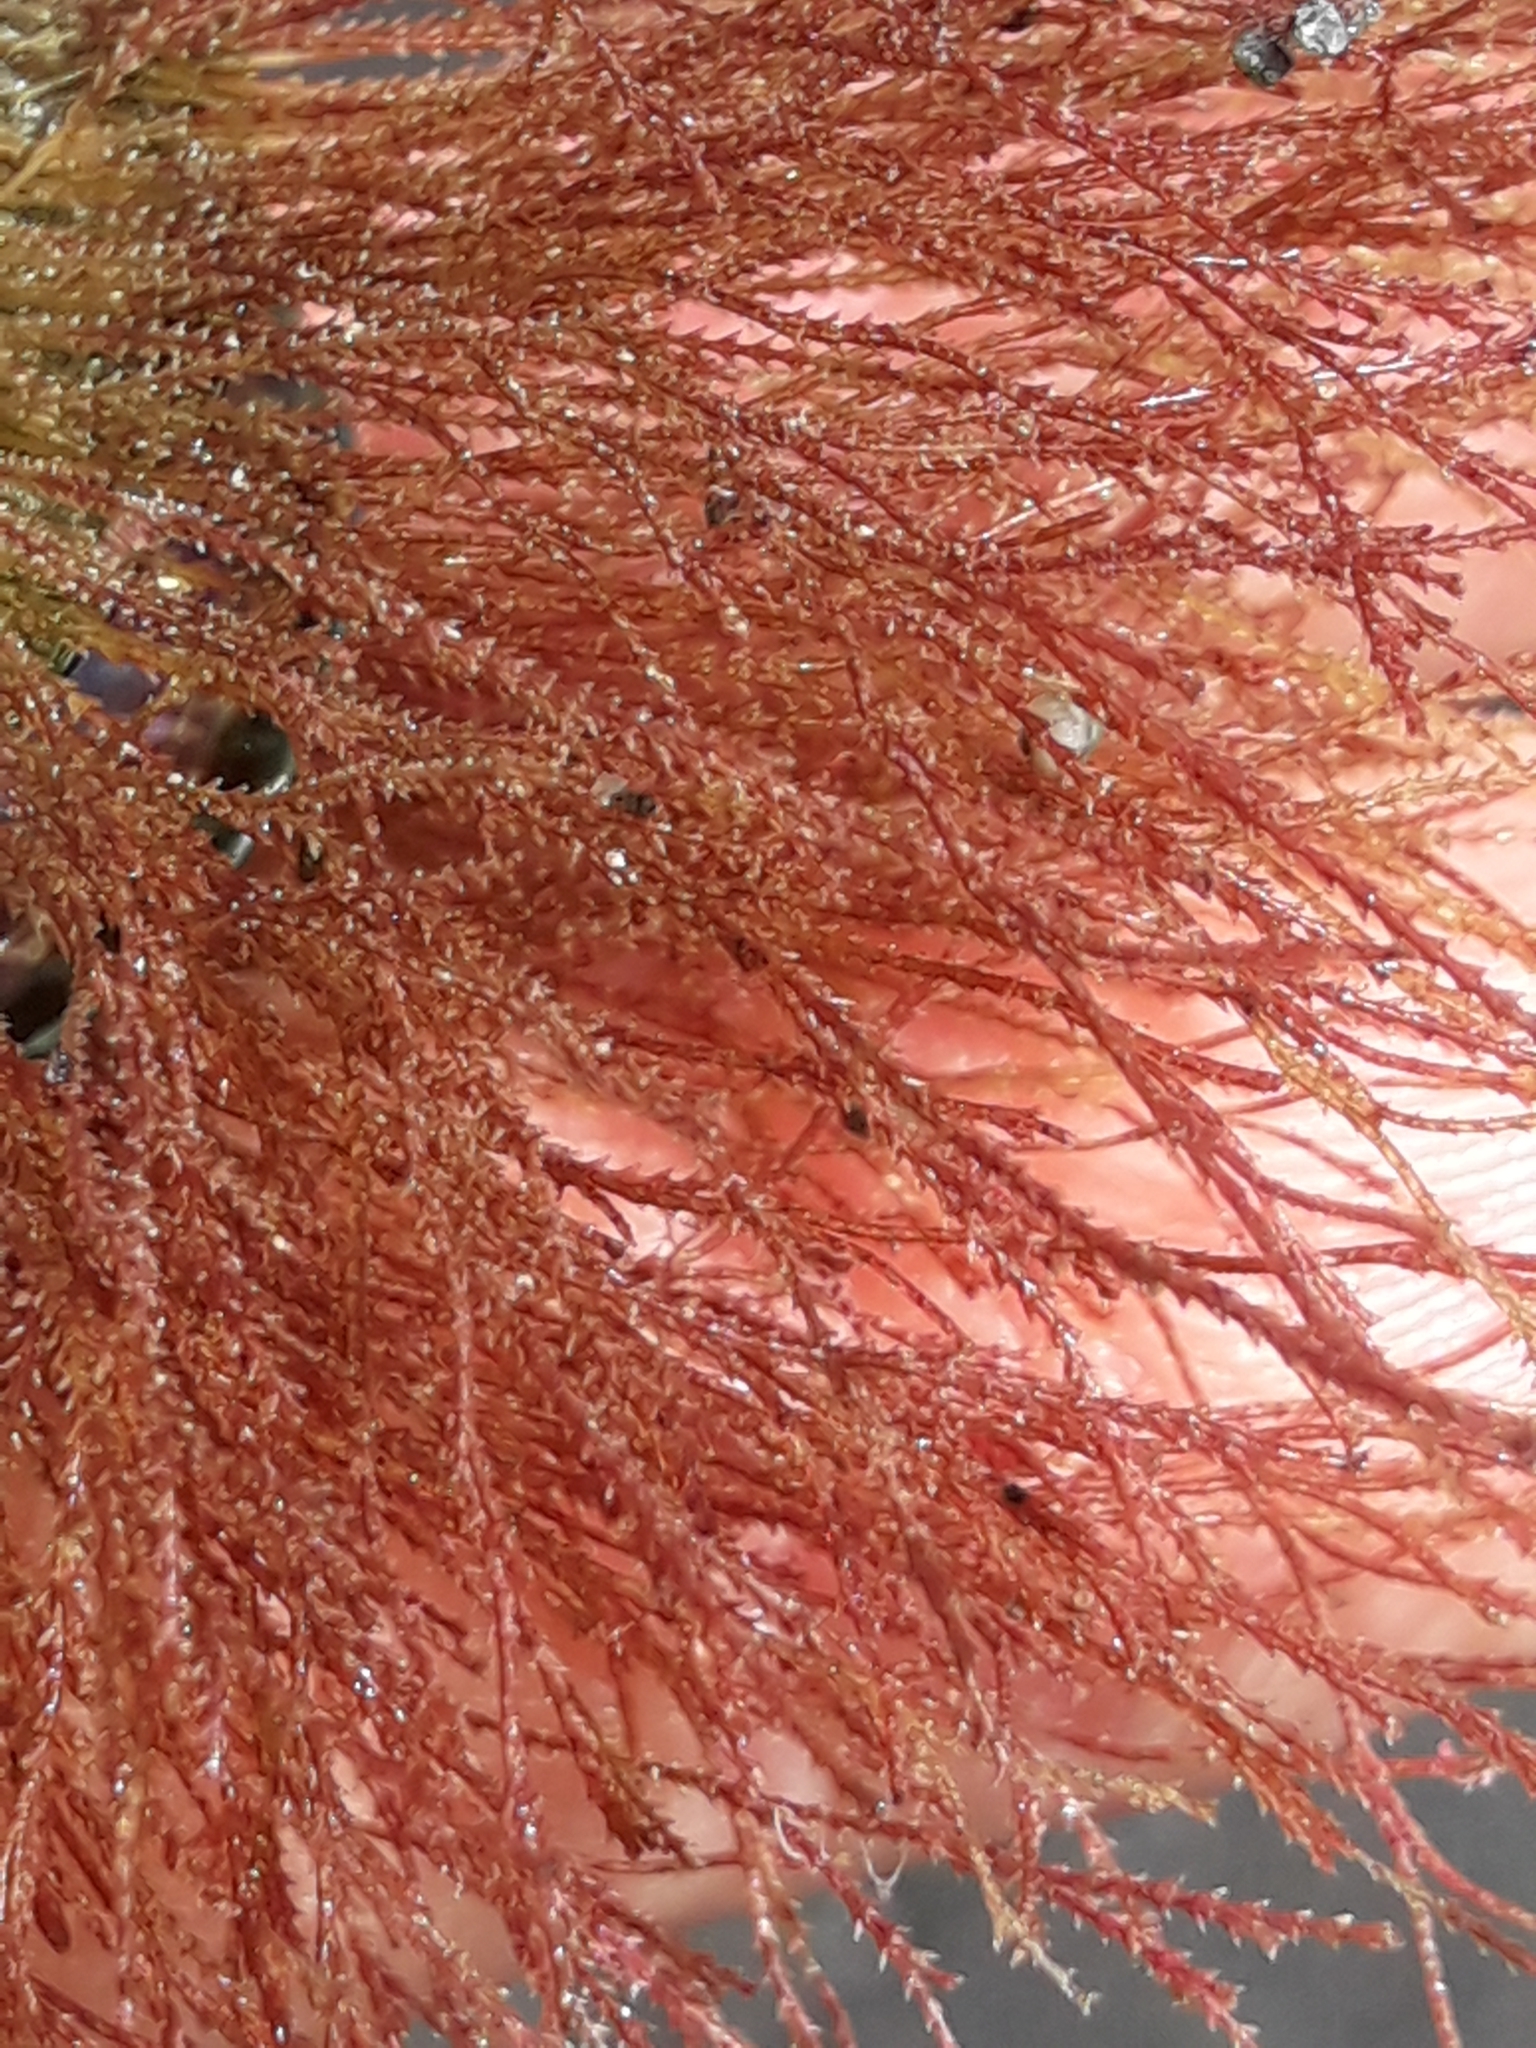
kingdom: Animalia
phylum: Cnidaria
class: Hydrozoa
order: Leptothecata
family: Sertulariidae
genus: Amphisbetia
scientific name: Amphisbetia bispinosa
